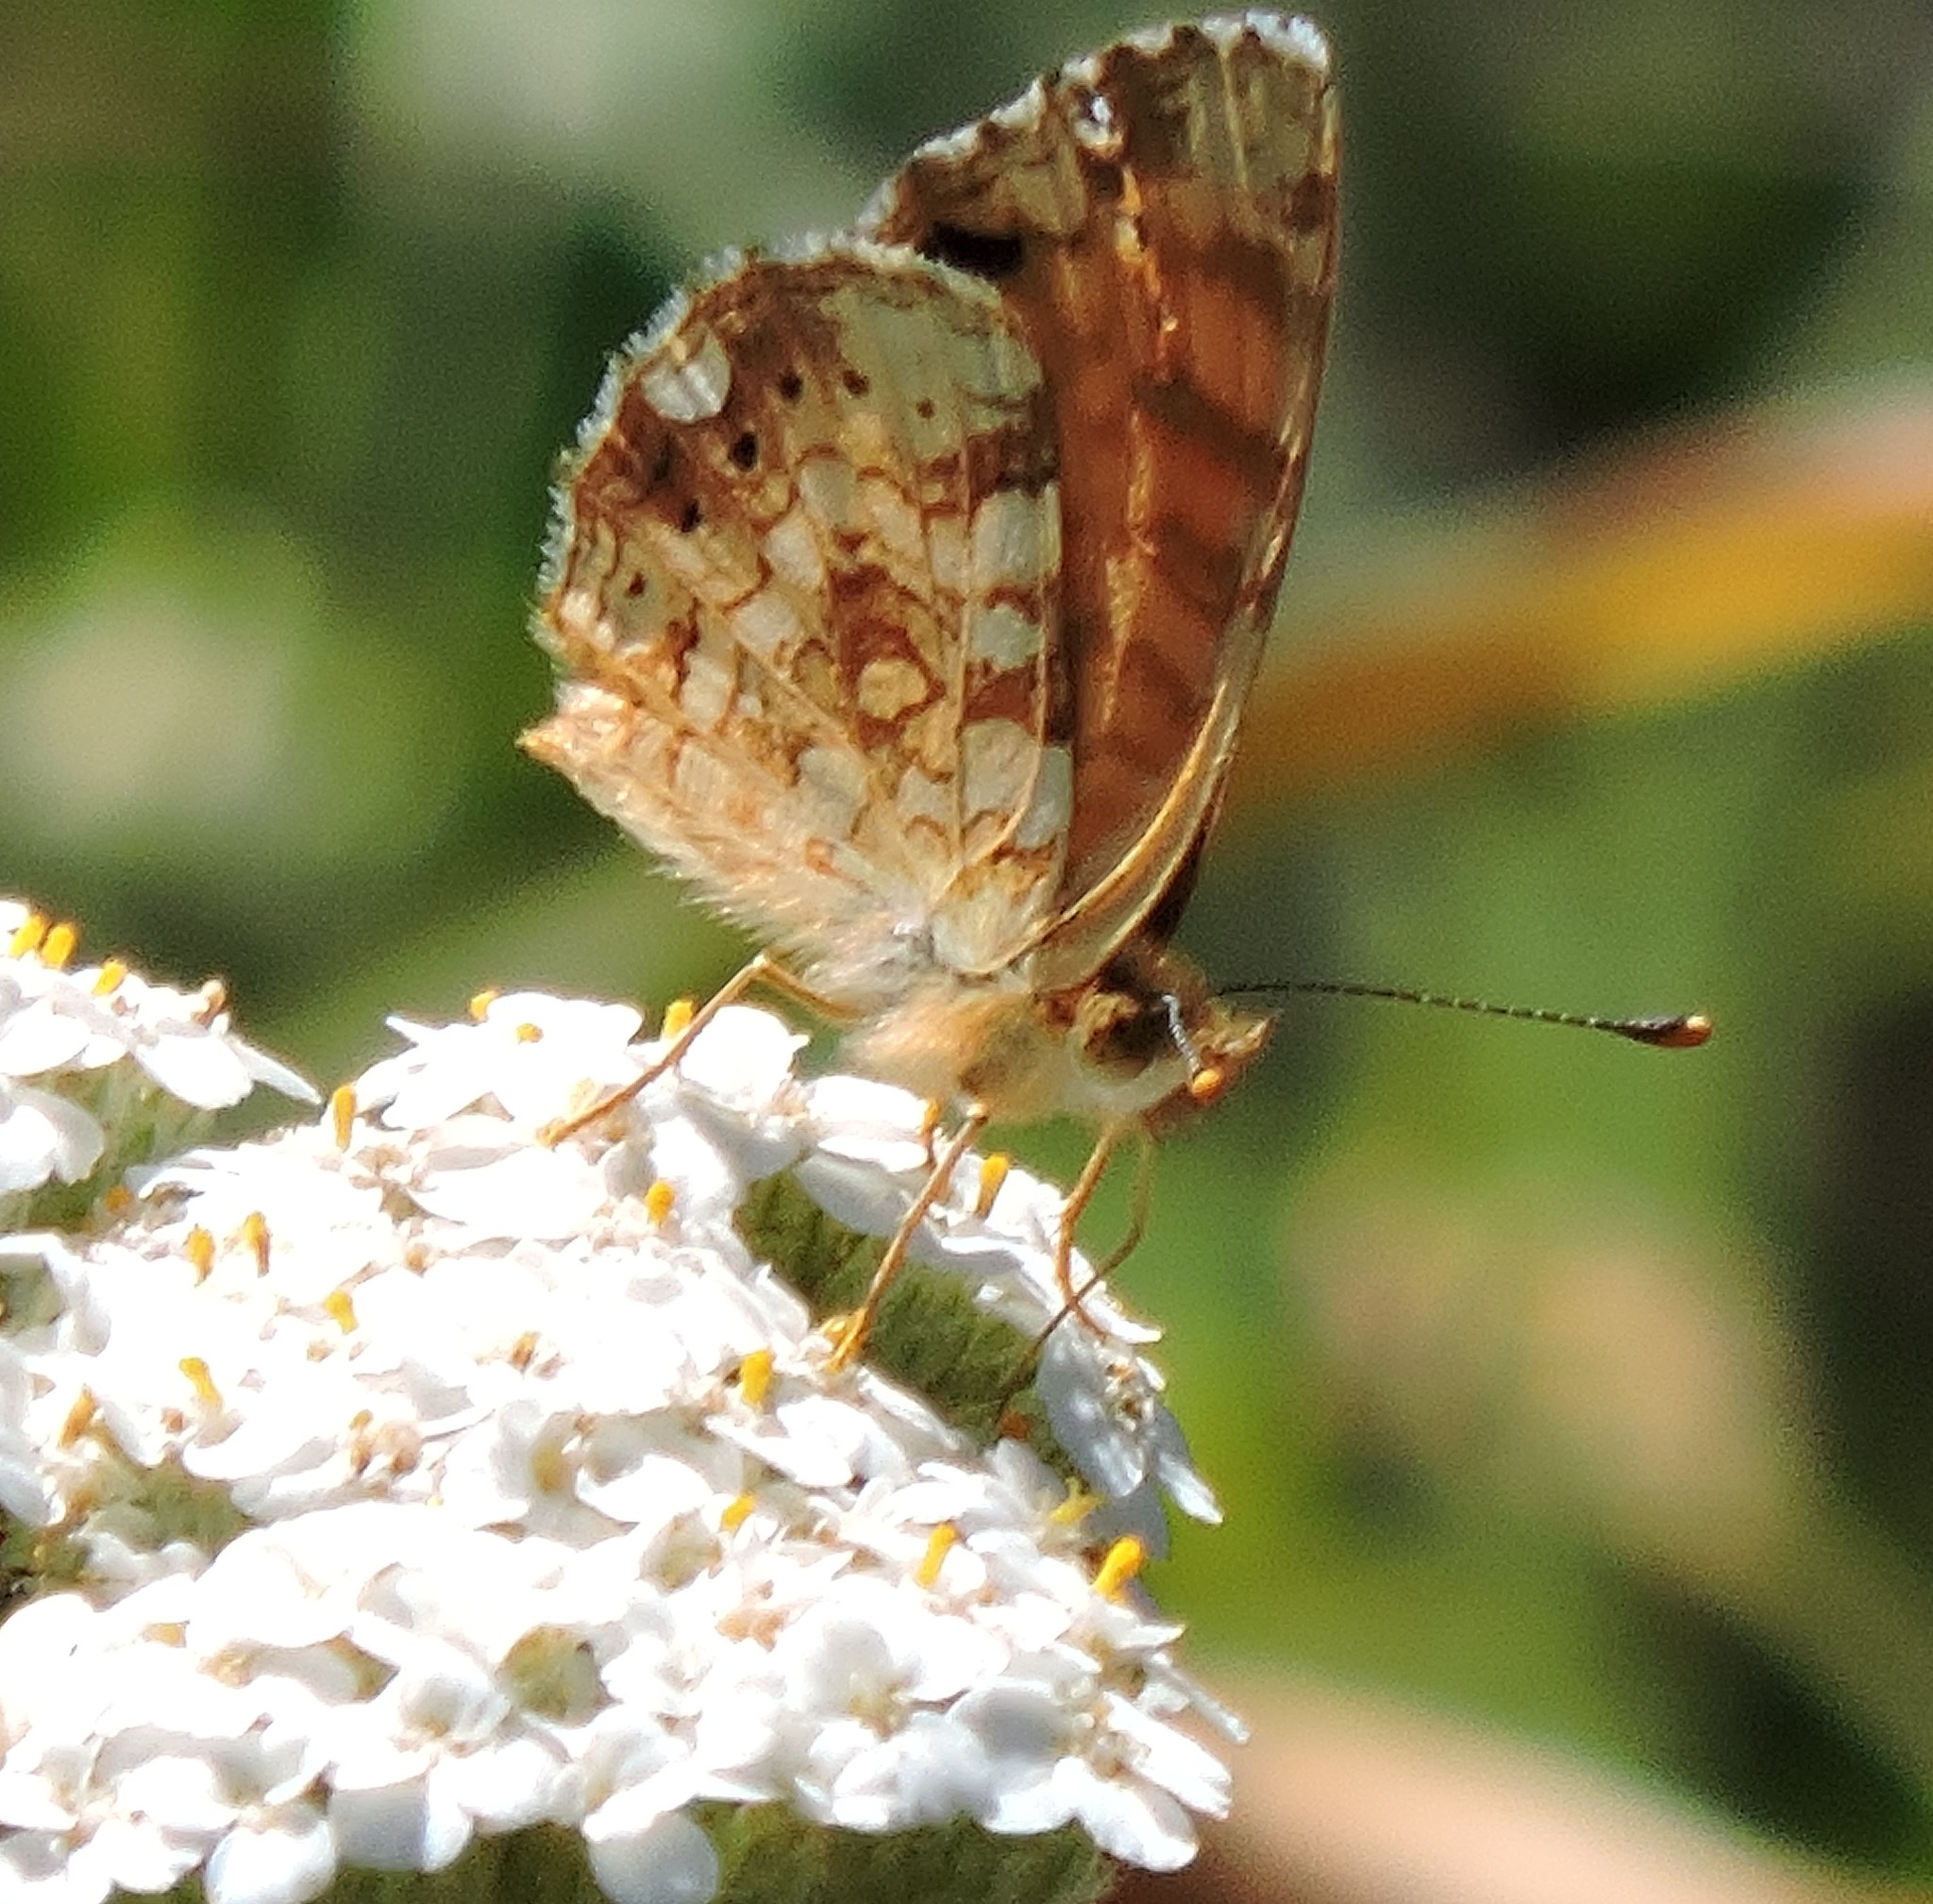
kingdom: Animalia
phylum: Arthropoda
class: Insecta
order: Lepidoptera
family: Nymphalidae
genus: Eresia
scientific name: Eresia aveyrona
